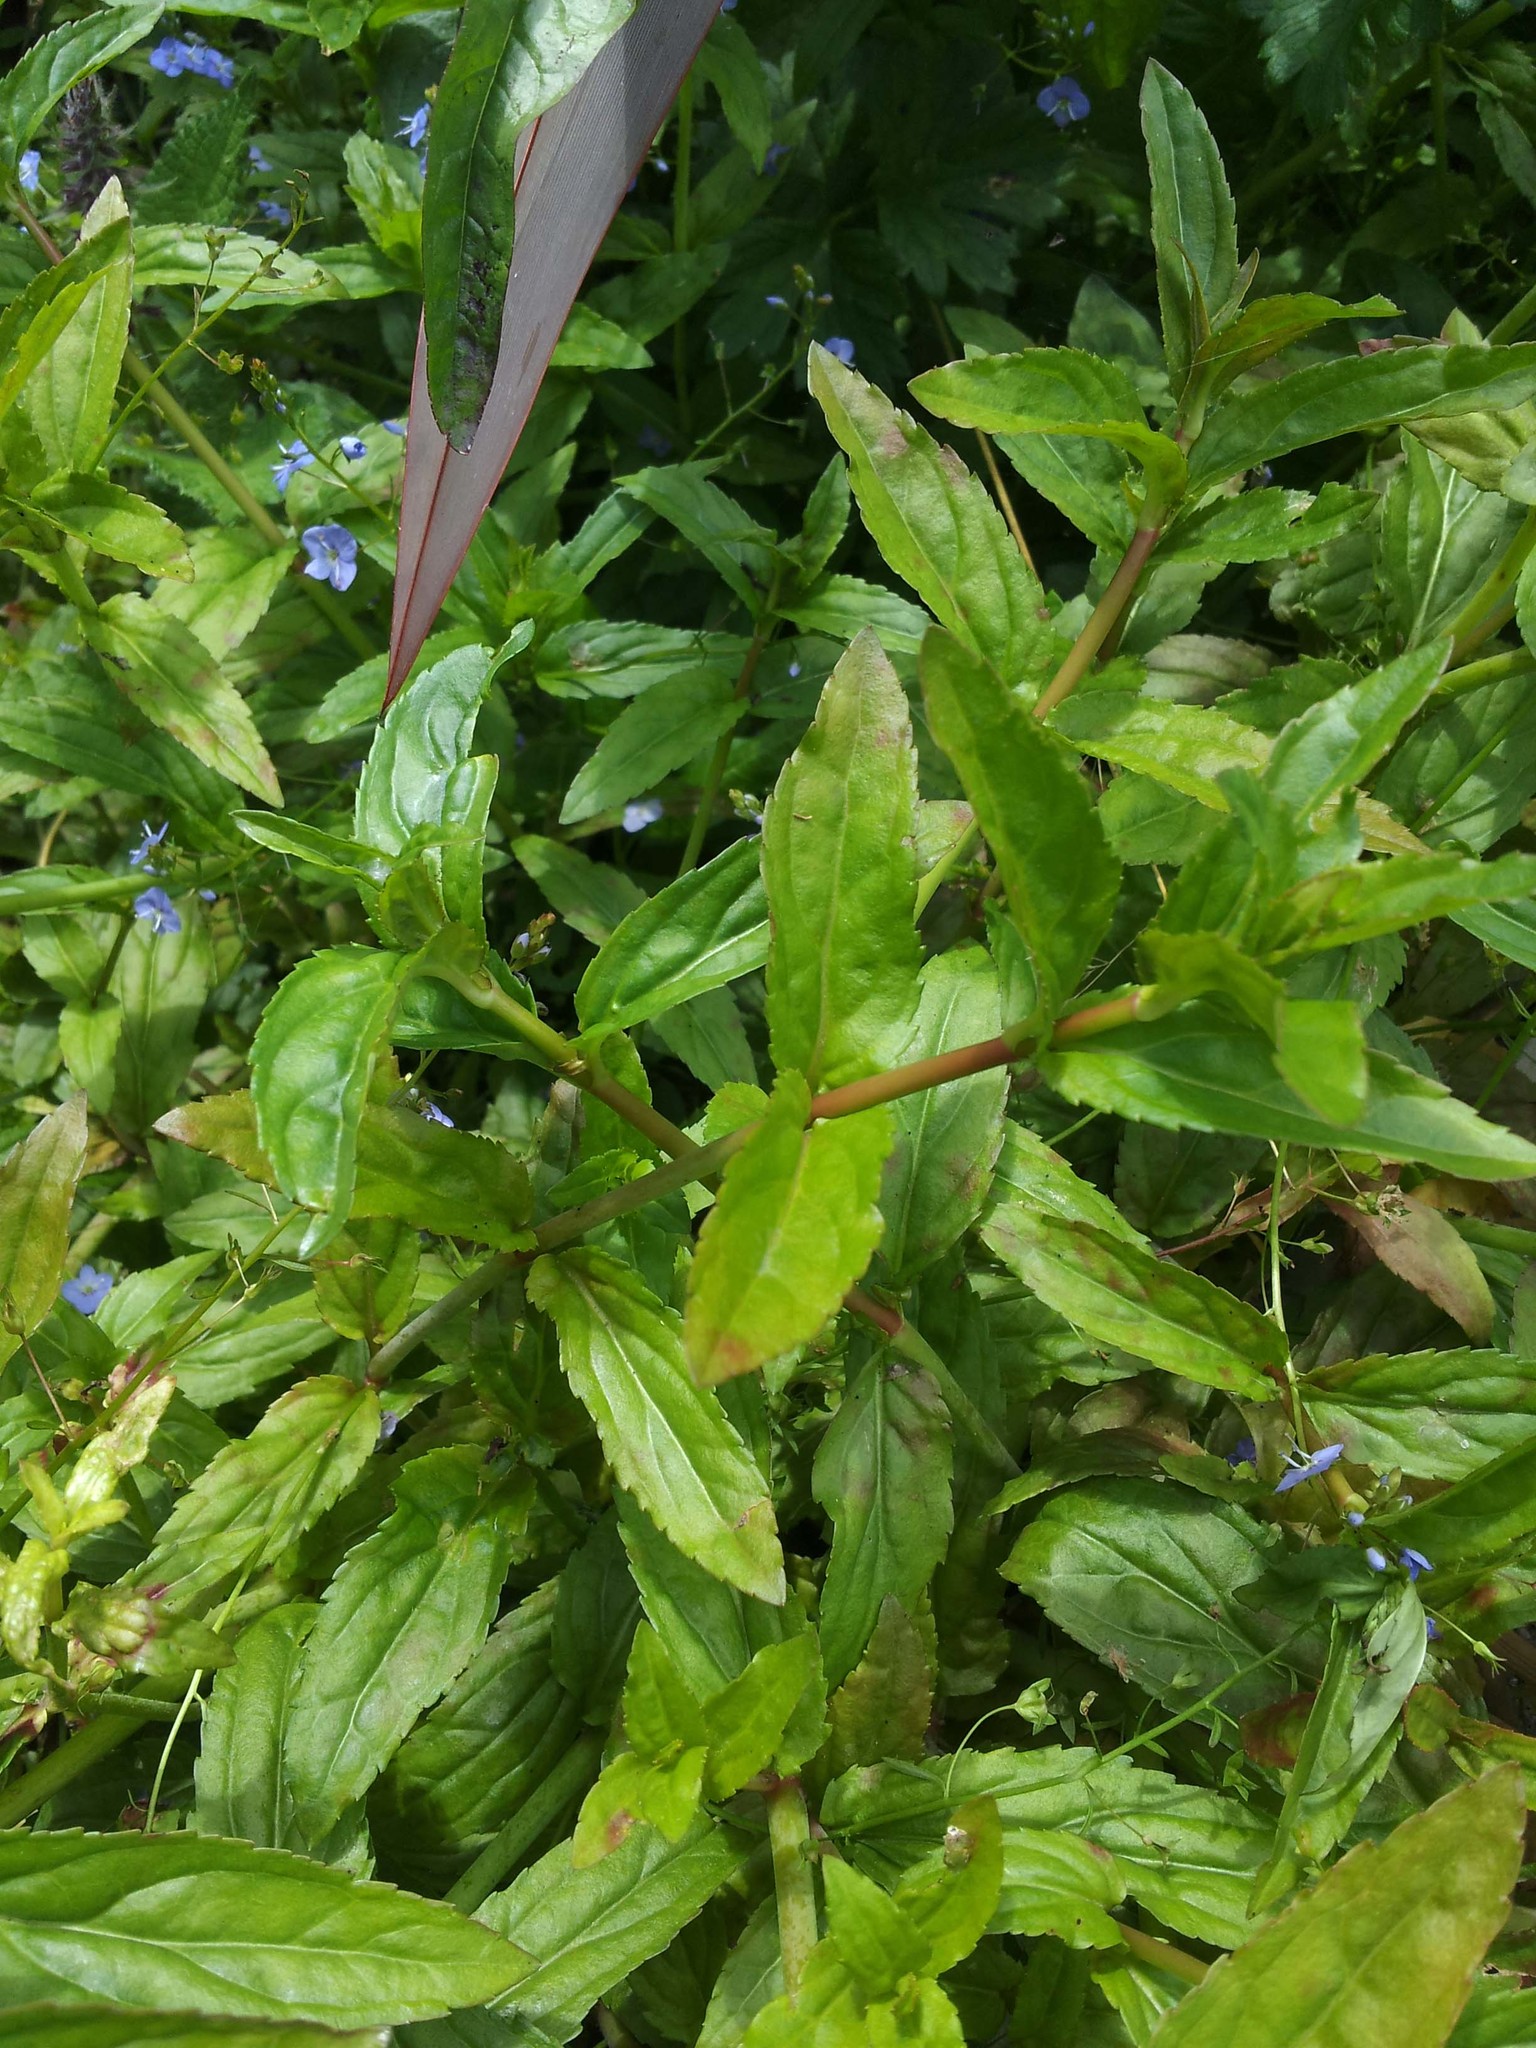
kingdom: Plantae
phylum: Tracheophyta
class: Magnoliopsida
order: Lamiales
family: Plantaginaceae
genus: Veronica
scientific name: Veronica americana
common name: American brooklime
